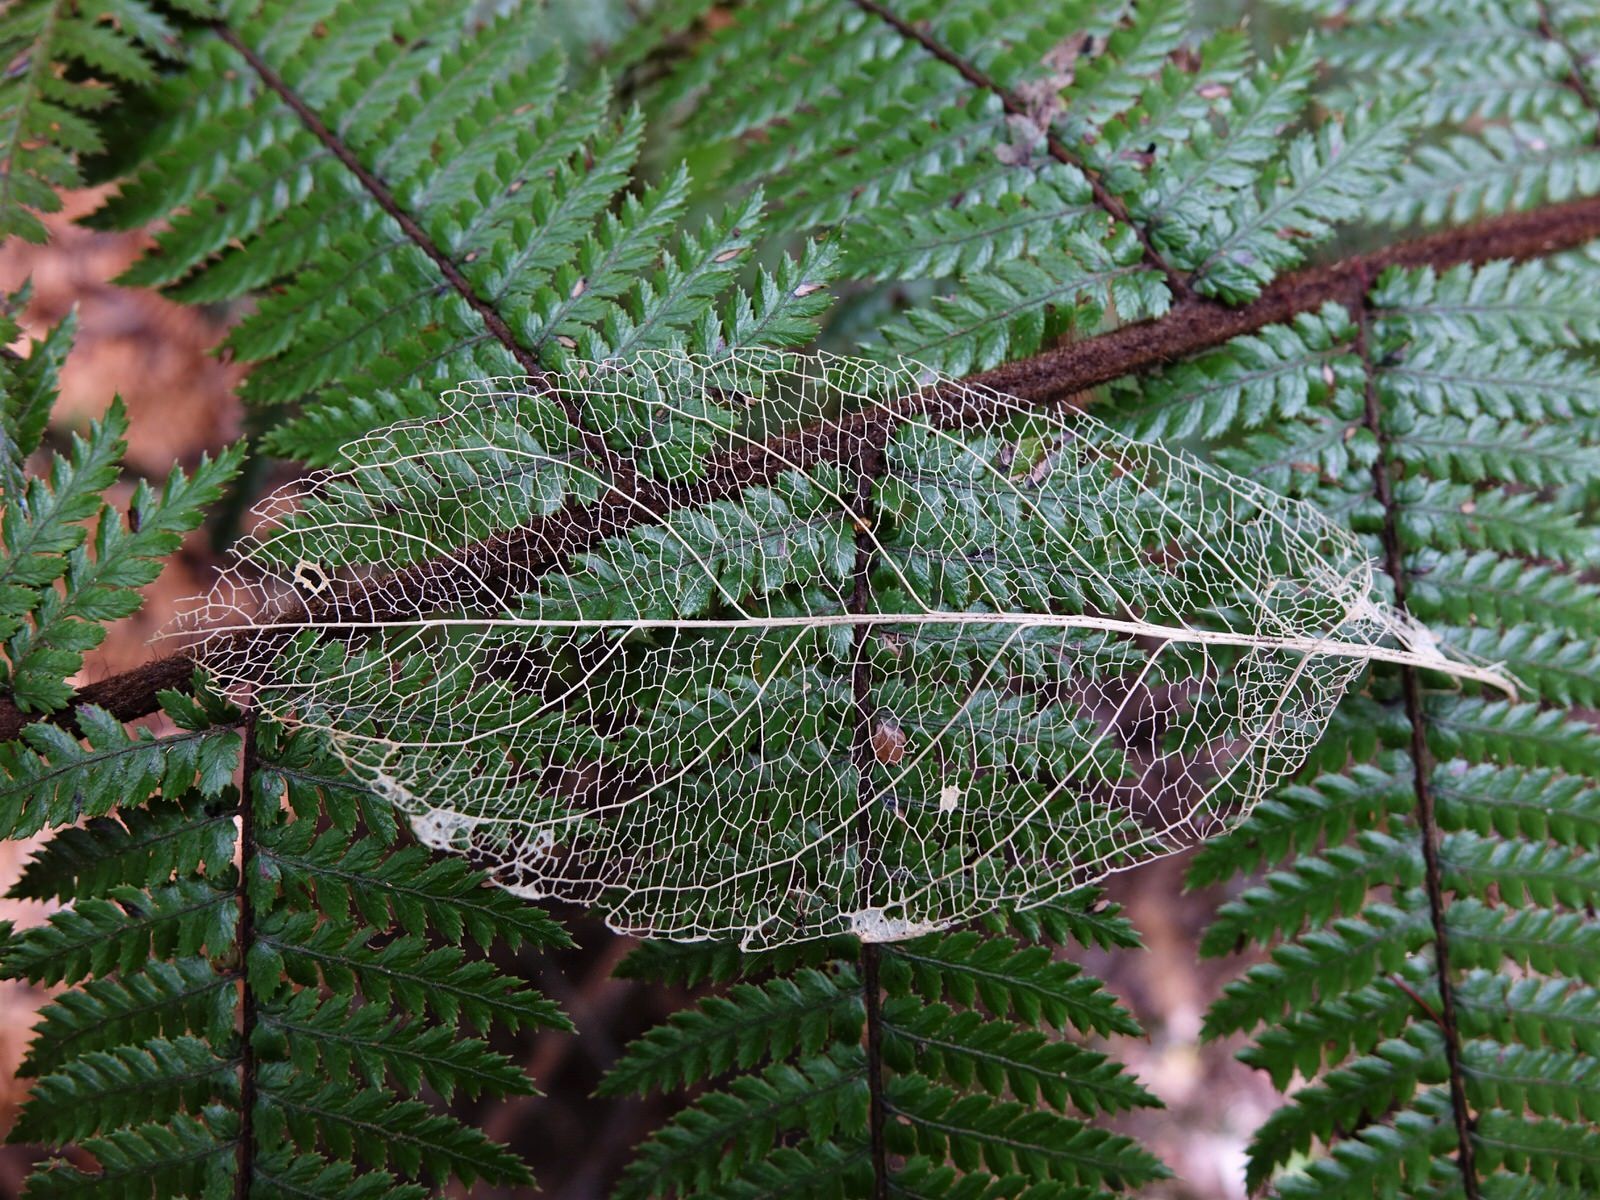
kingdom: Plantae
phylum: Tracheophyta
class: Magnoliopsida
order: Malpighiales
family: Violaceae
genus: Melicytus
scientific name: Melicytus ramiflorus
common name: Mahoe
